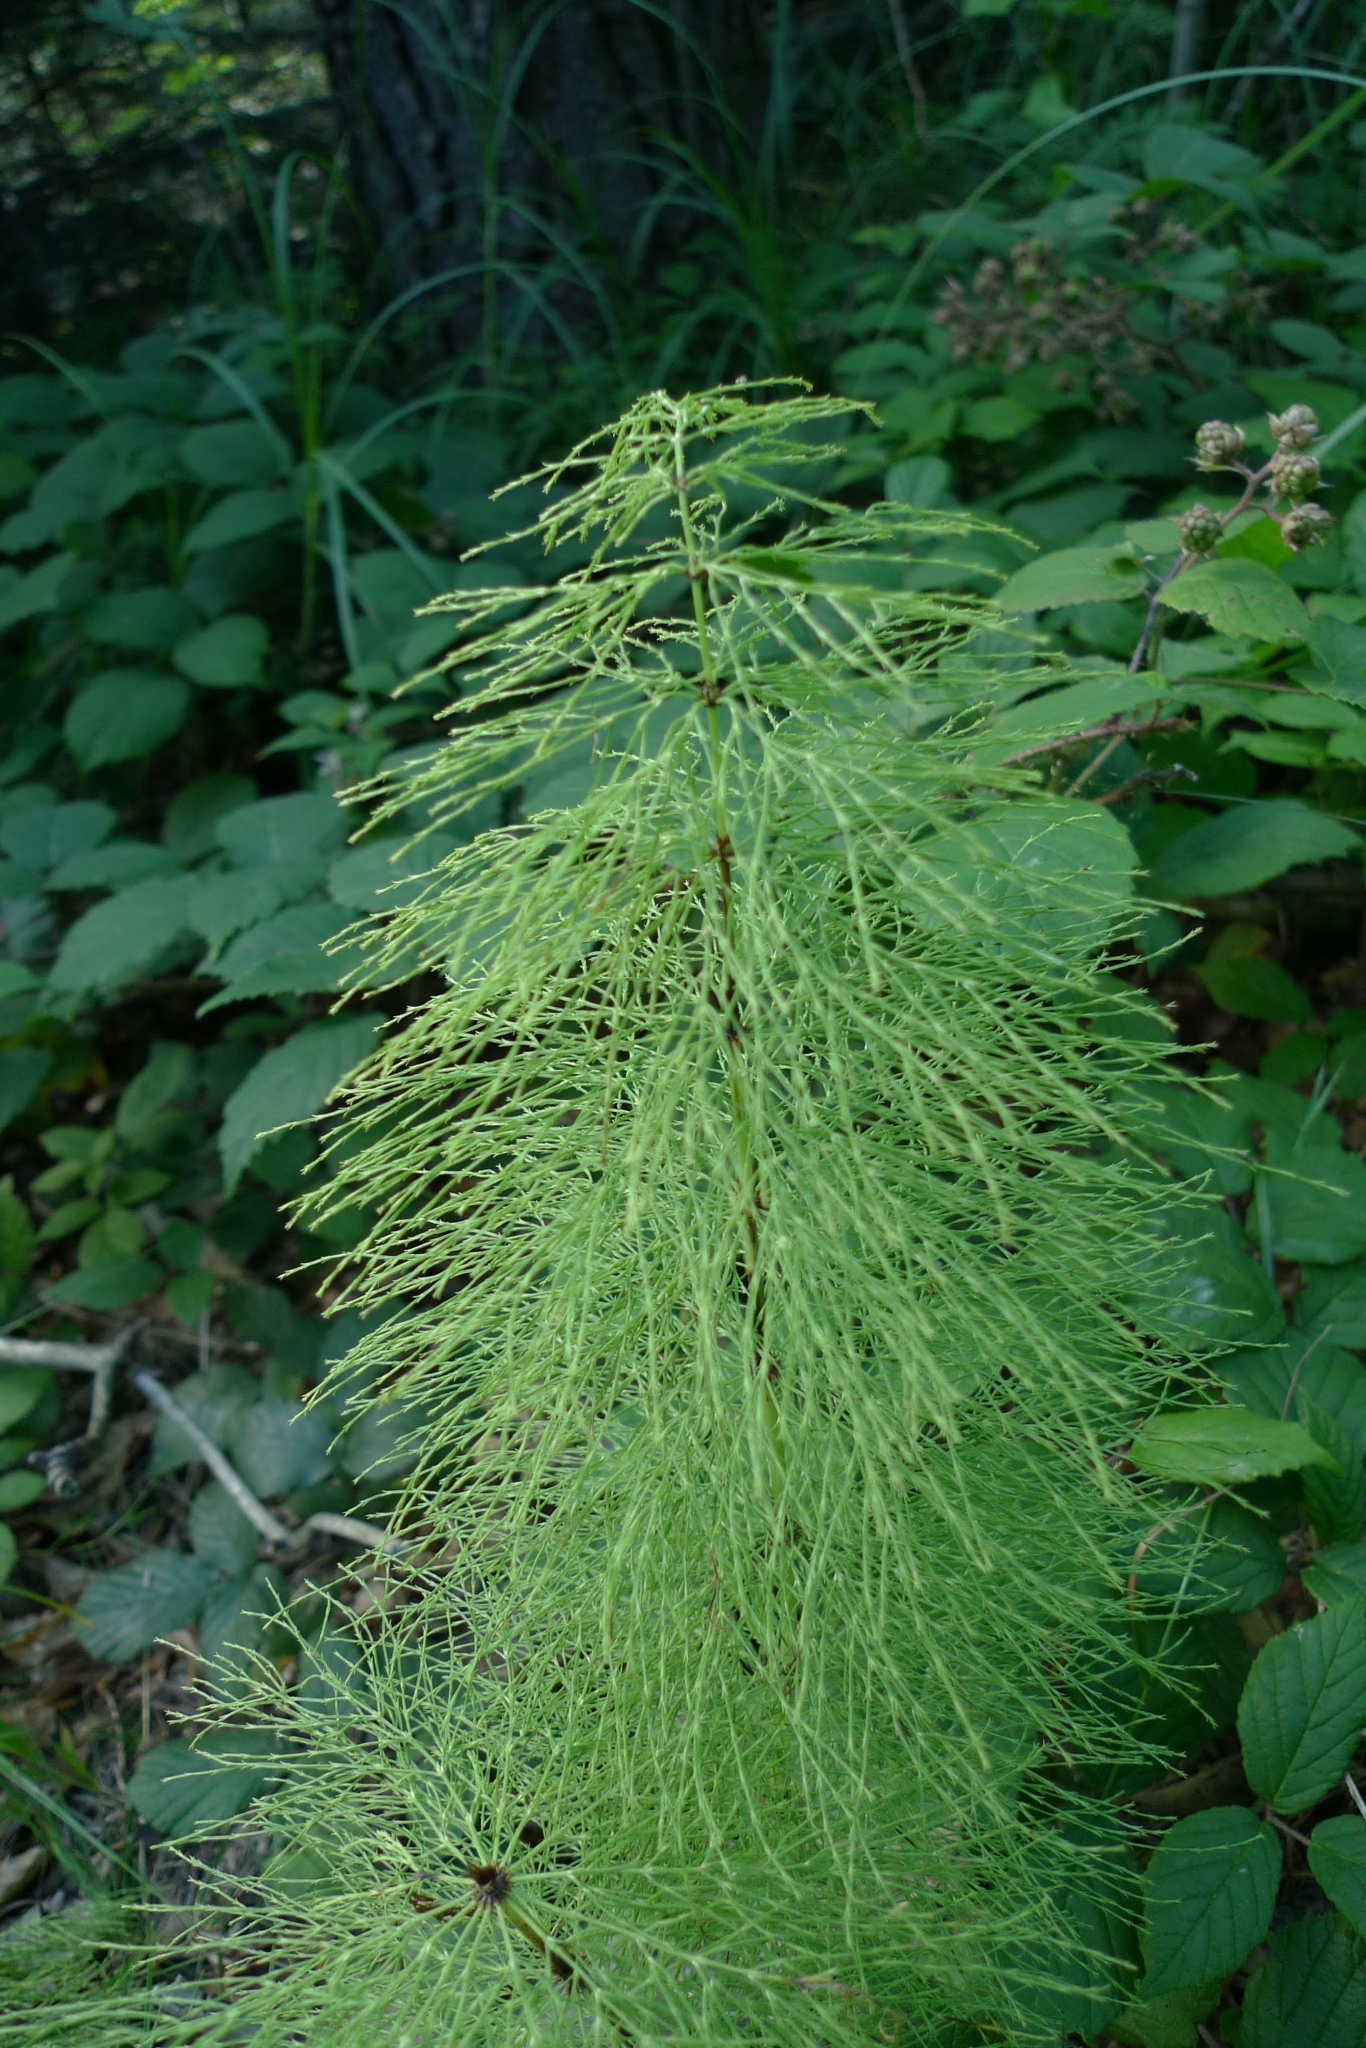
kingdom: Plantae
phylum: Tracheophyta
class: Polypodiopsida
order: Equisetales
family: Equisetaceae
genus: Equisetum
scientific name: Equisetum sylvaticum
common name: Wood horsetail
